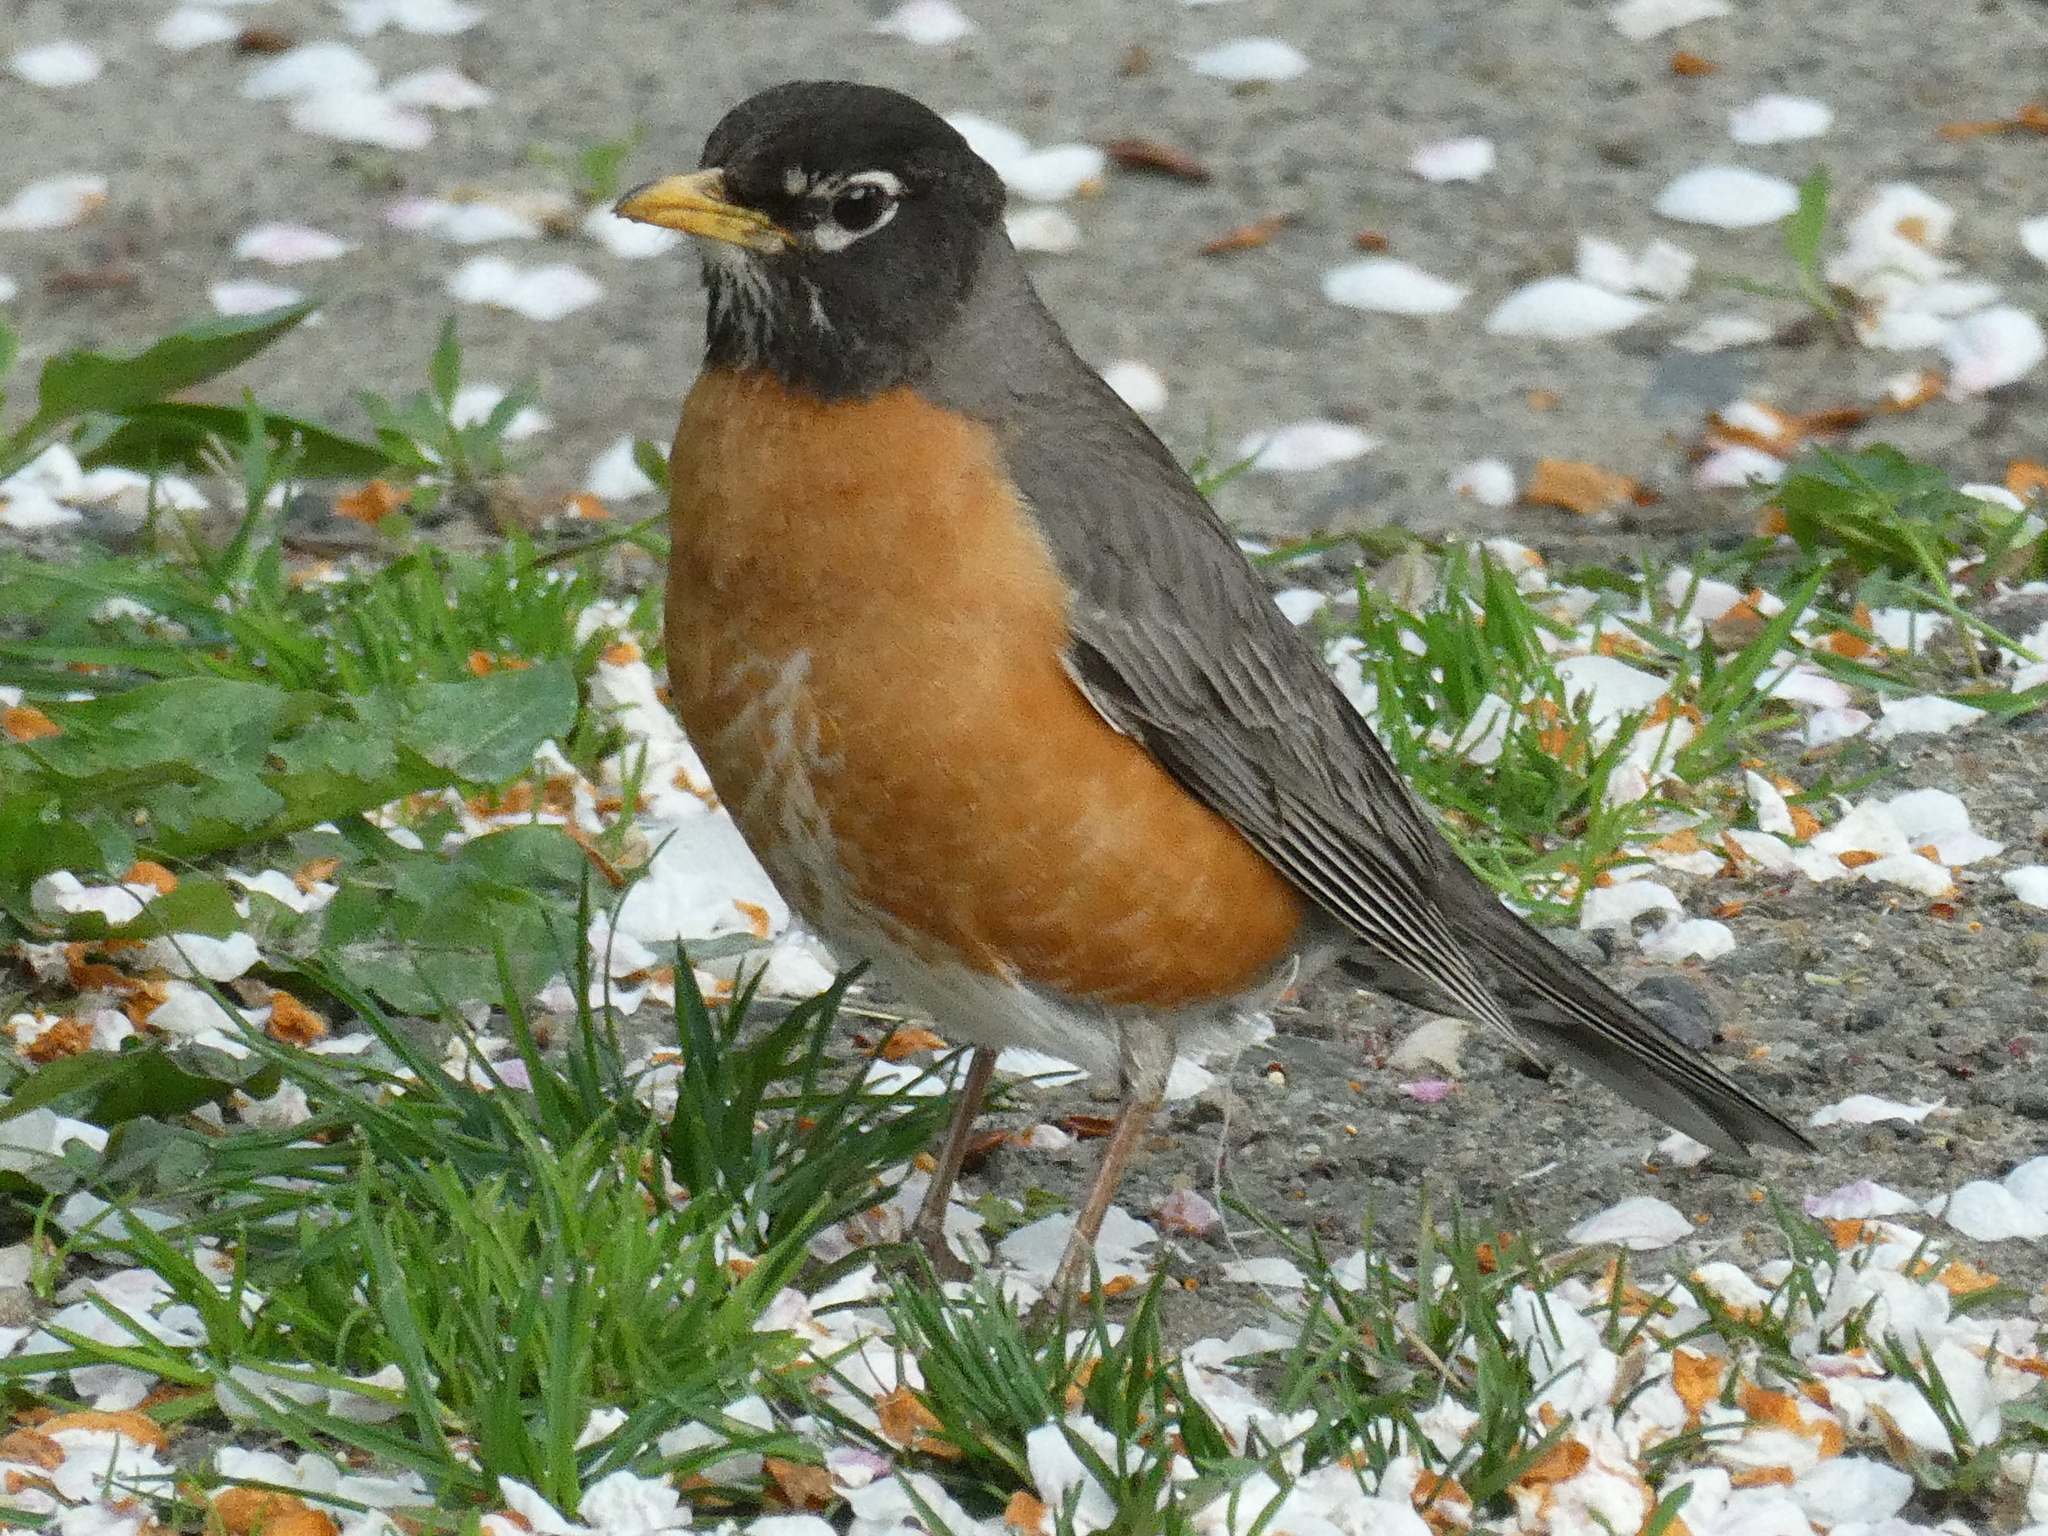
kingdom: Animalia
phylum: Chordata
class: Aves
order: Passeriformes
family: Turdidae
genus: Turdus
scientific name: Turdus migratorius
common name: American robin
